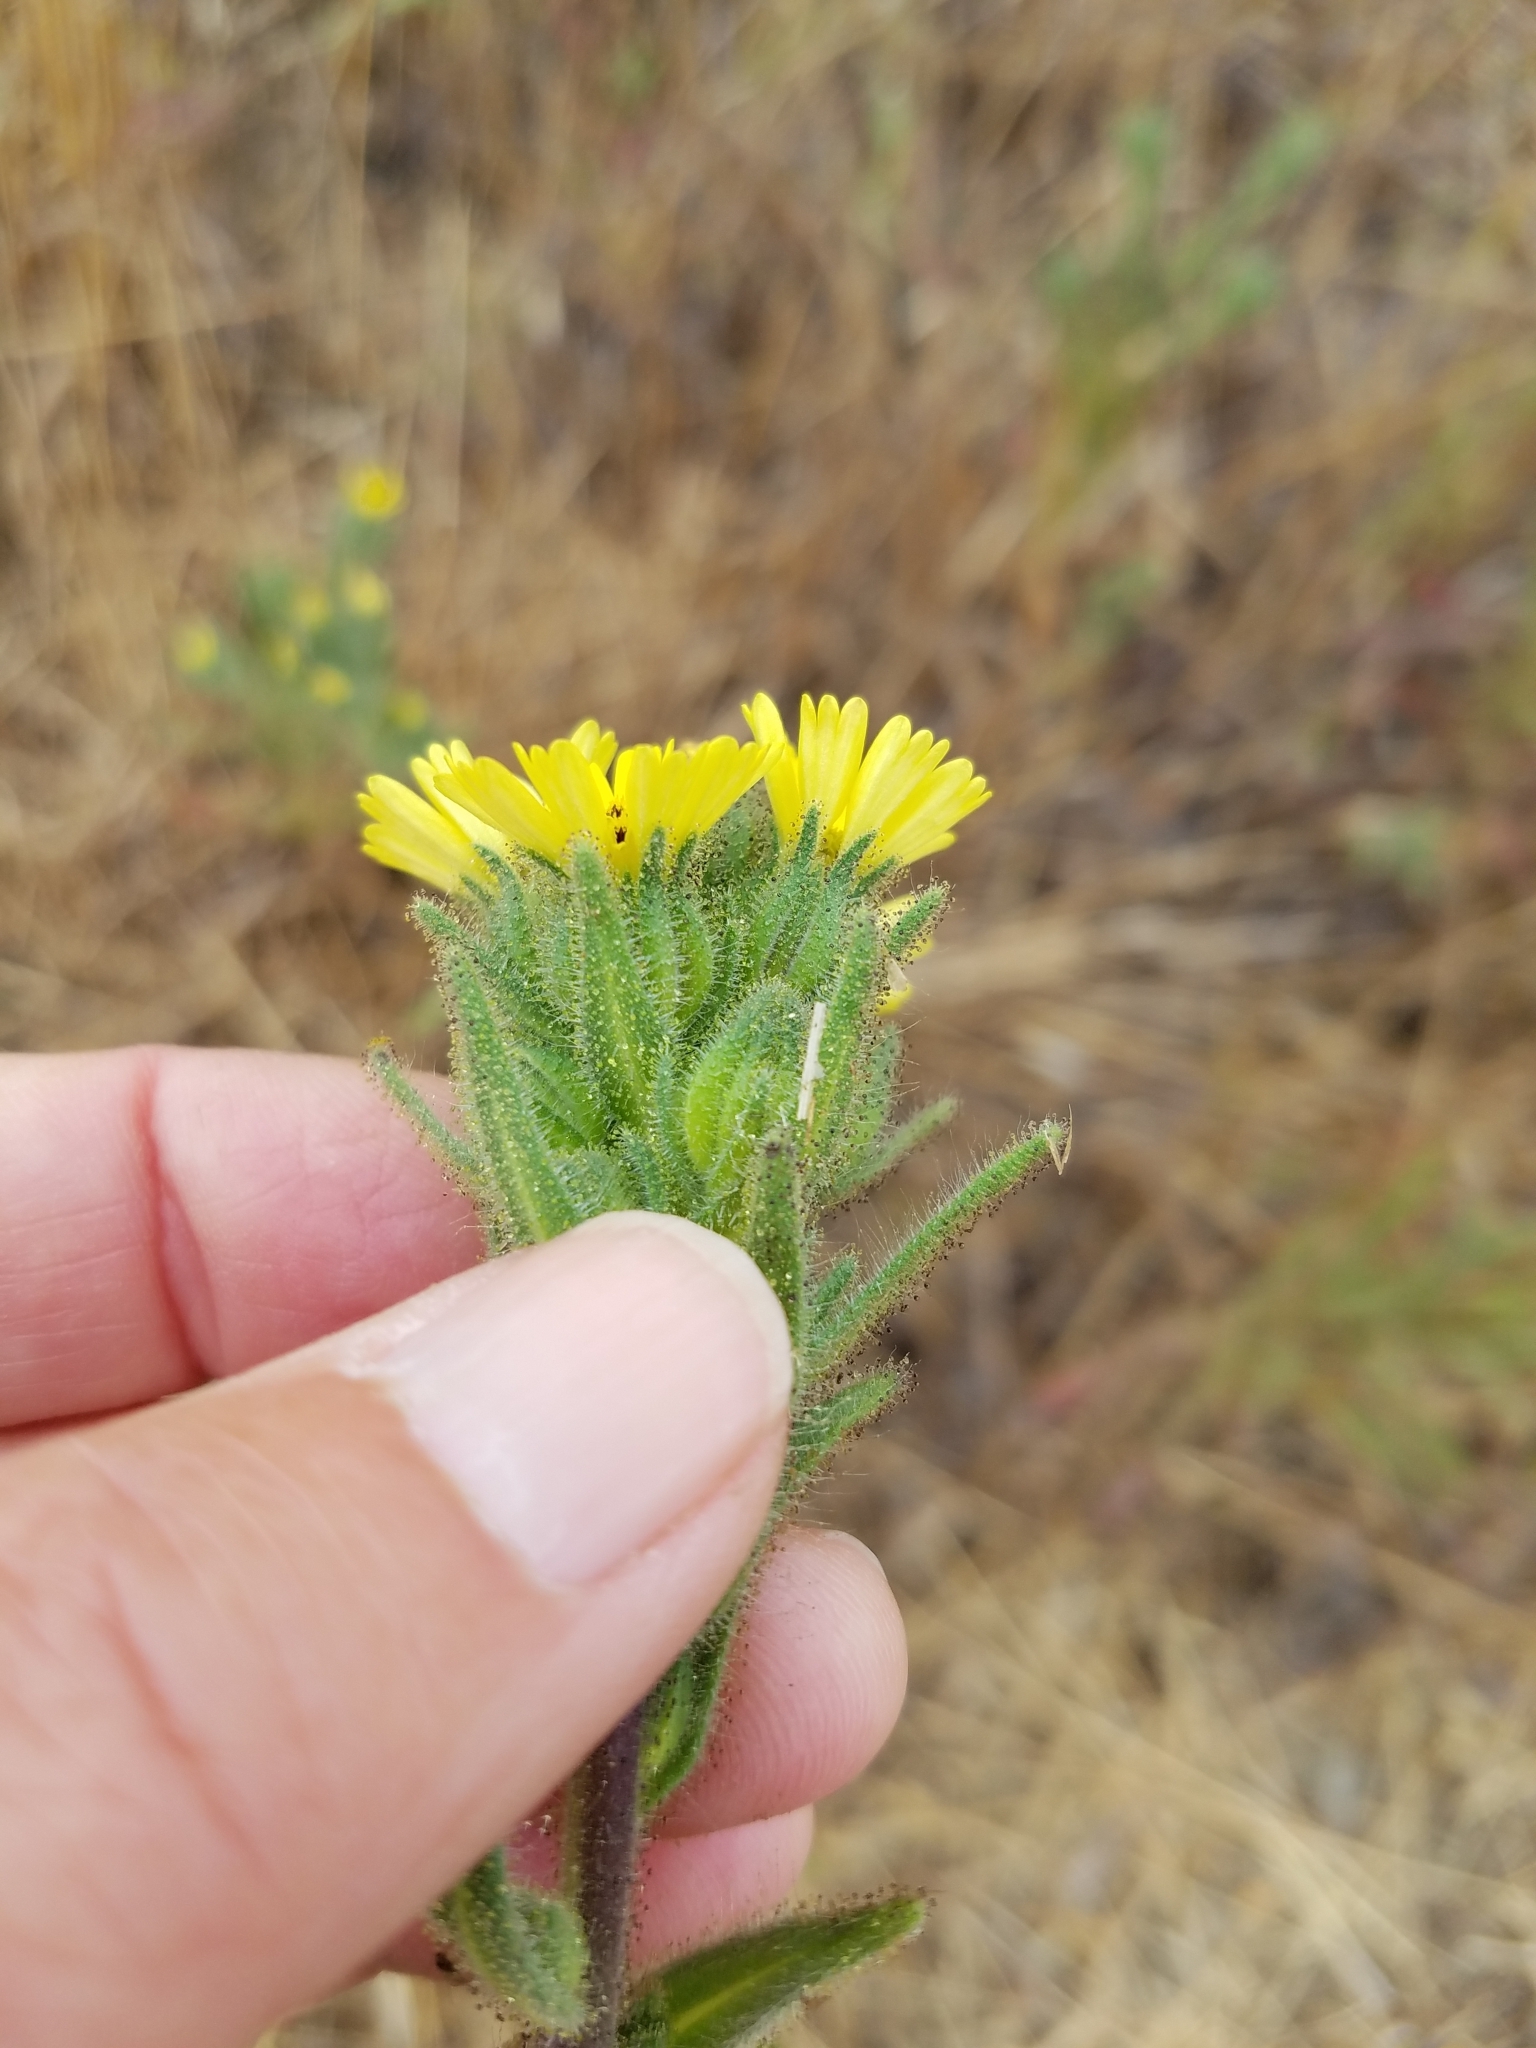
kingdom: Plantae
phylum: Tracheophyta
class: Magnoliopsida
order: Asterales
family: Asteraceae
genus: Madia
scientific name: Madia sativa
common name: Coast tarweed
